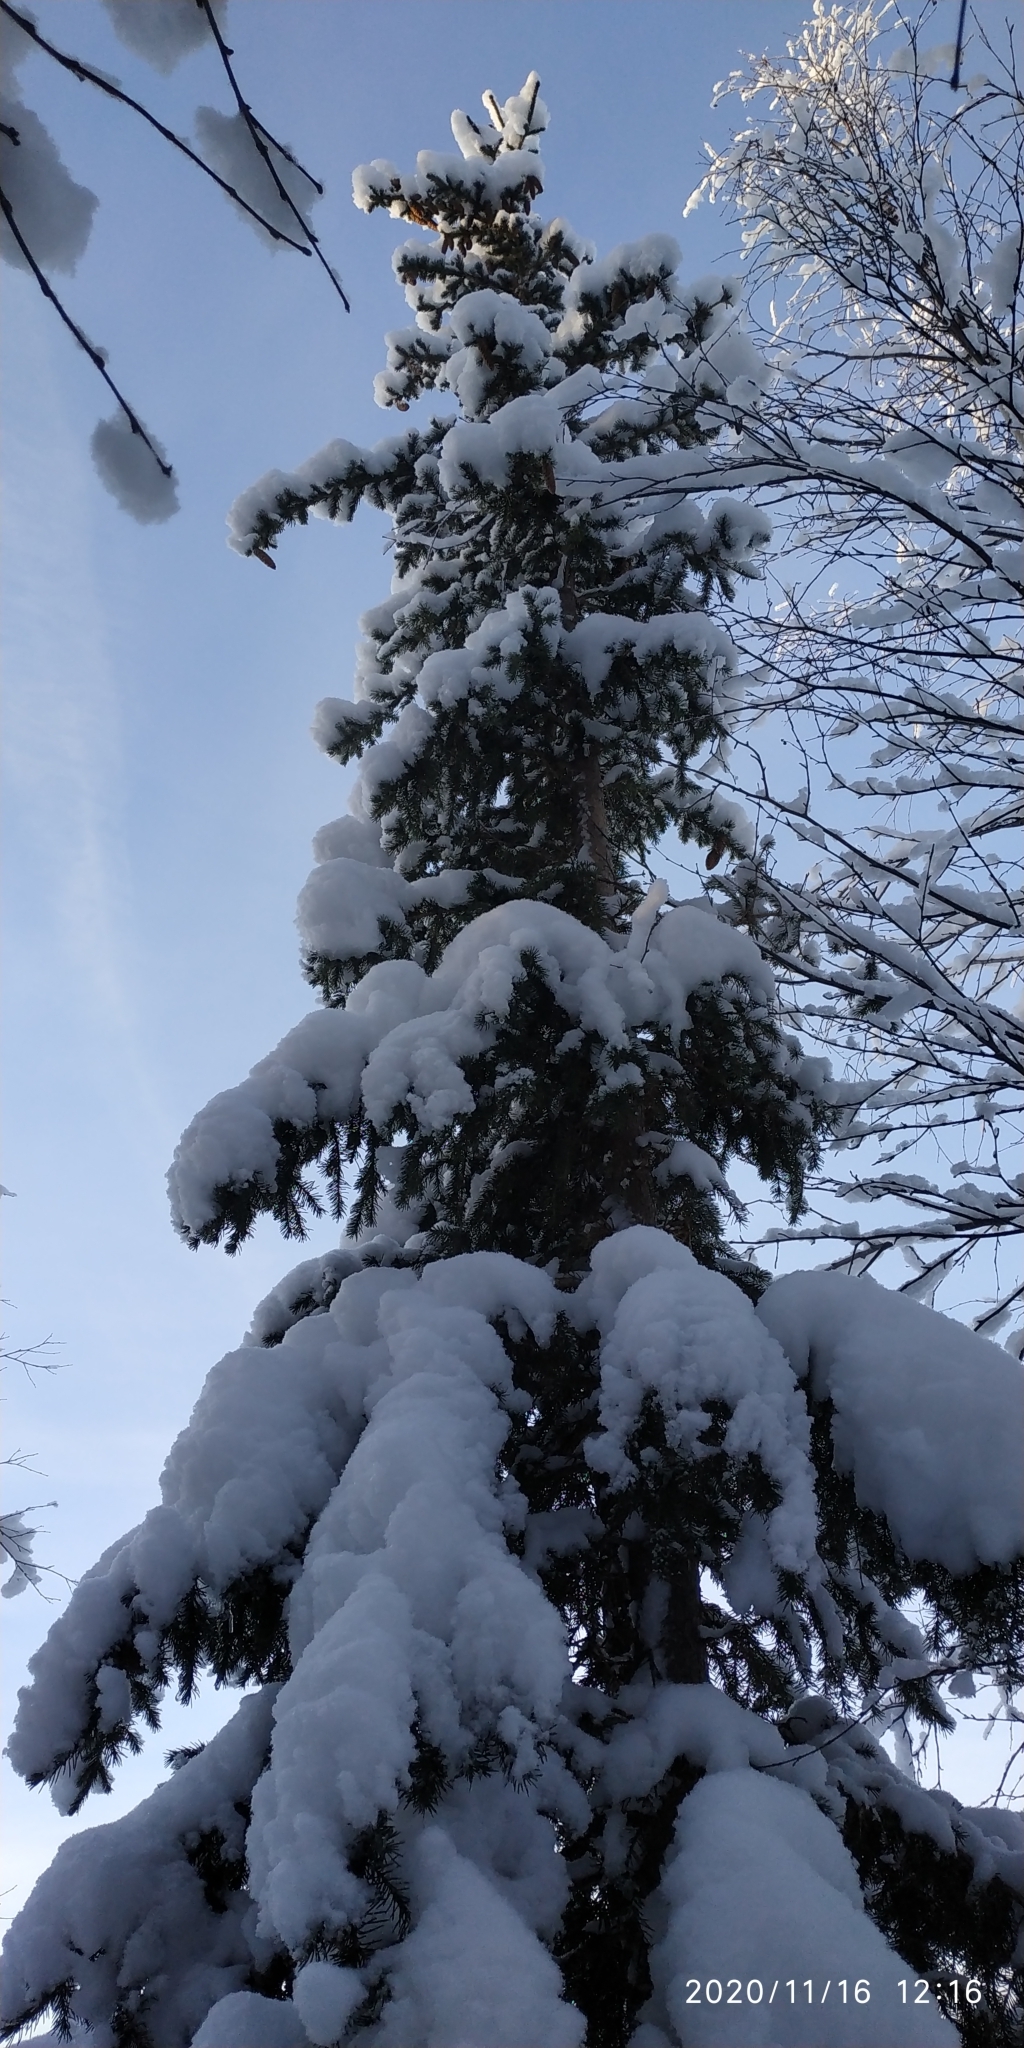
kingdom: Plantae
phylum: Tracheophyta
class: Pinopsida
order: Pinales
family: Pinaceae
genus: Picea
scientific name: Picea obovata
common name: Siberian spruce
